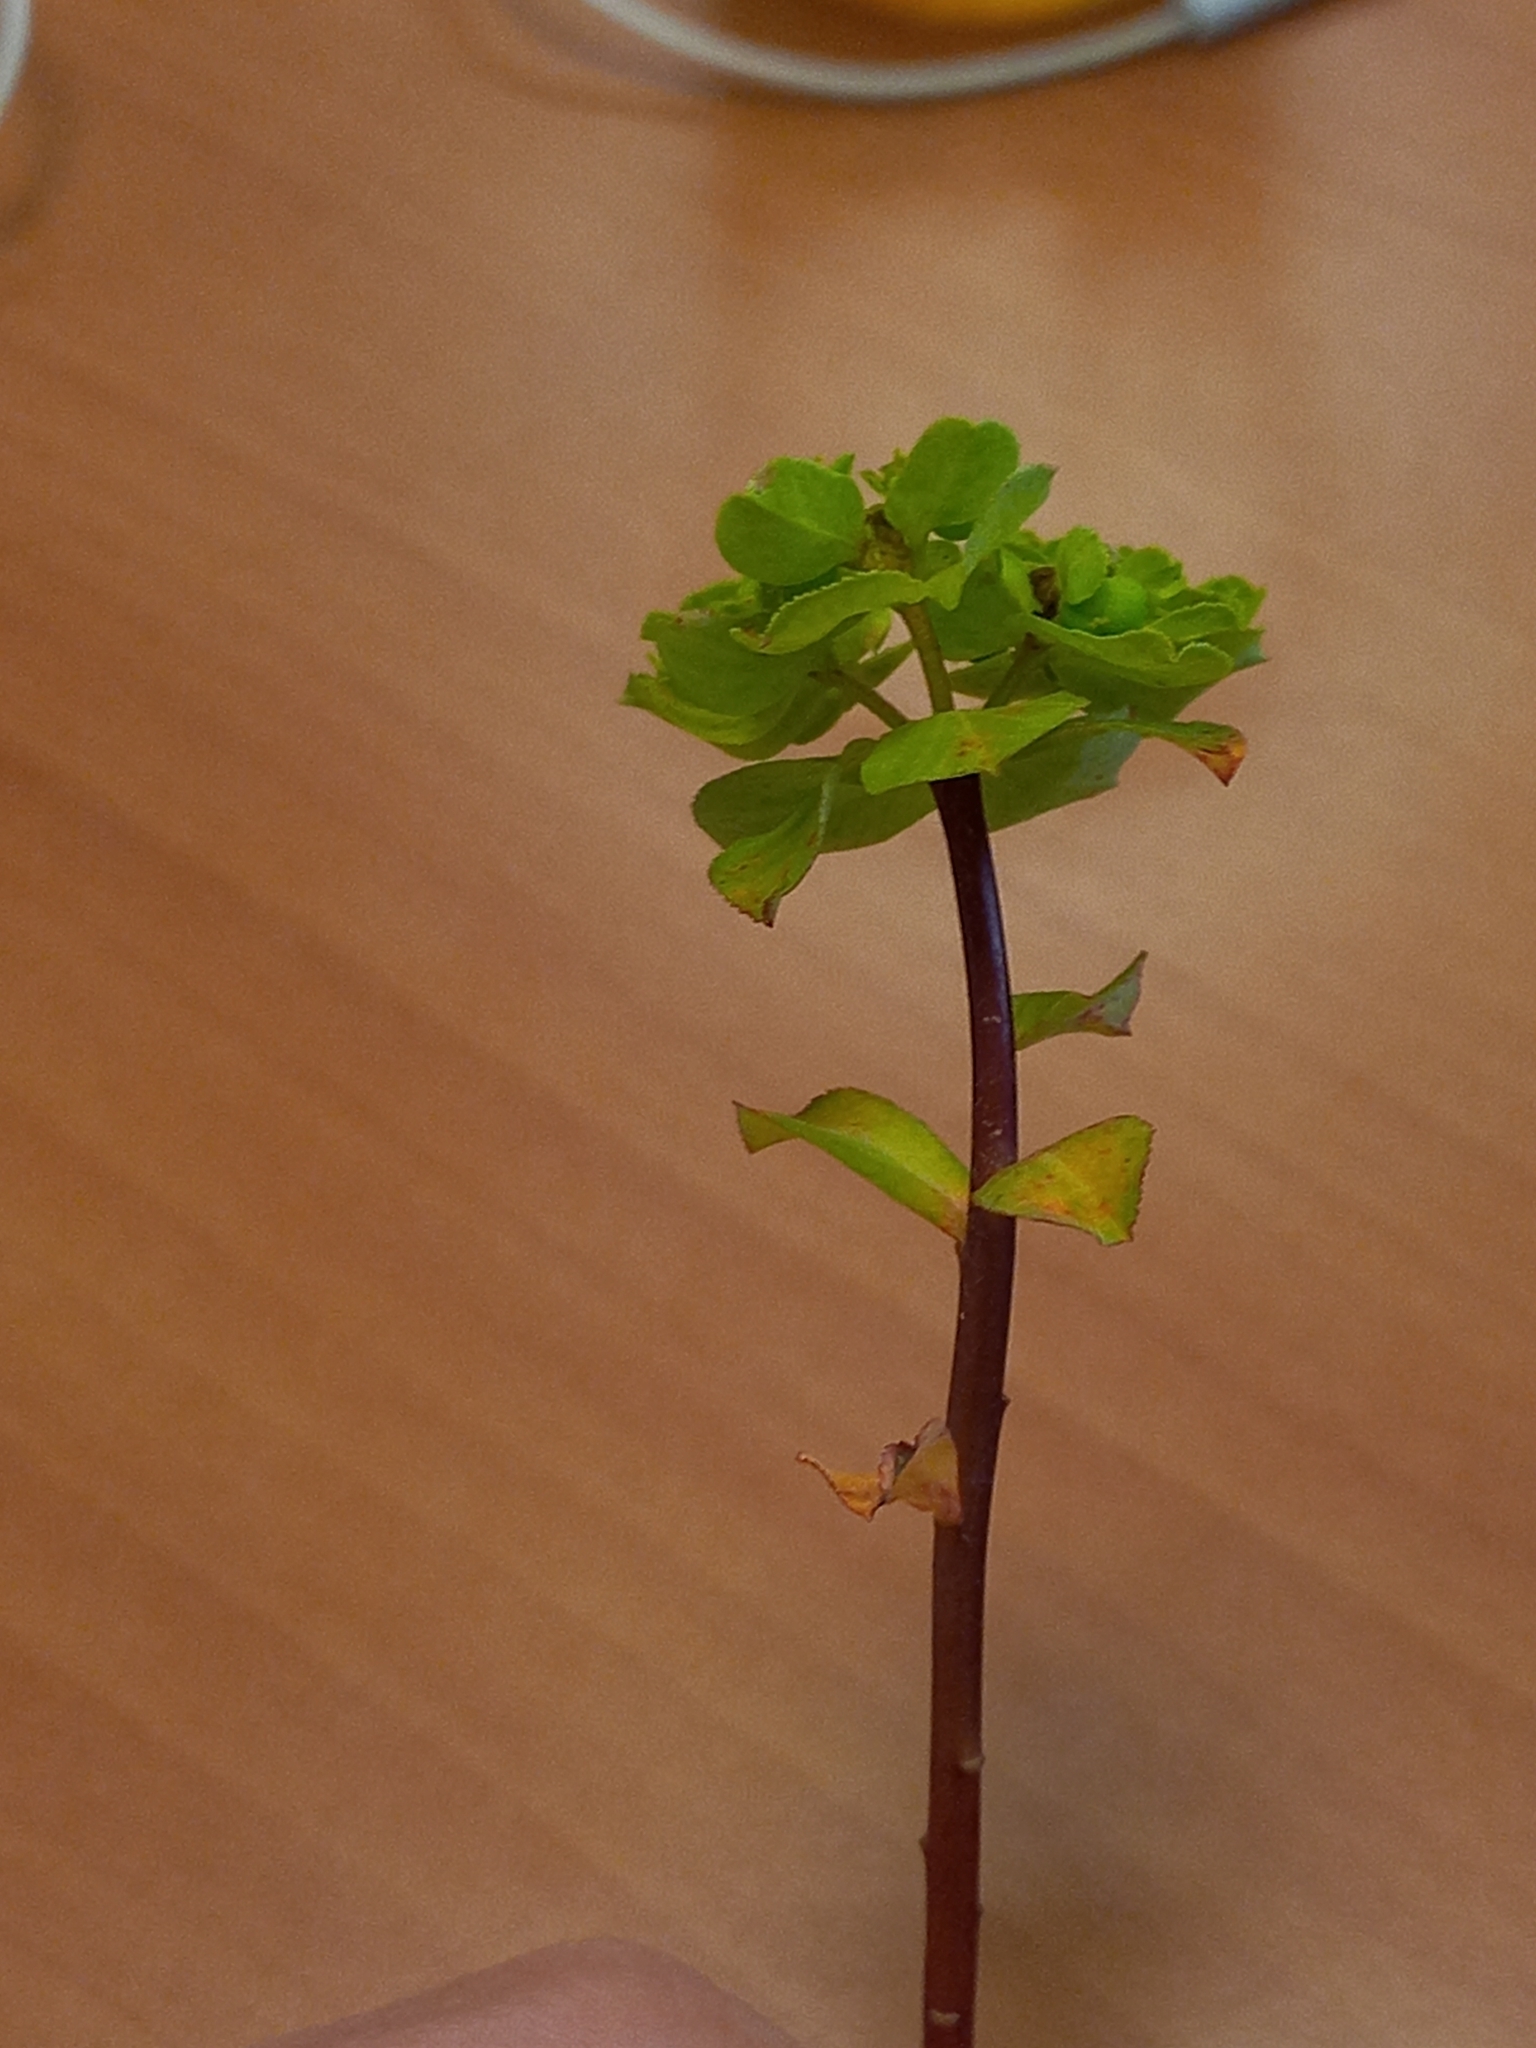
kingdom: Plantae
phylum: Tracheophyta
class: Magnoliopsida
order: Malpighiales
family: Euphorbiaceae
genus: Euphorbia
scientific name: Euphorbia helioscopia
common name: Sun spurge
